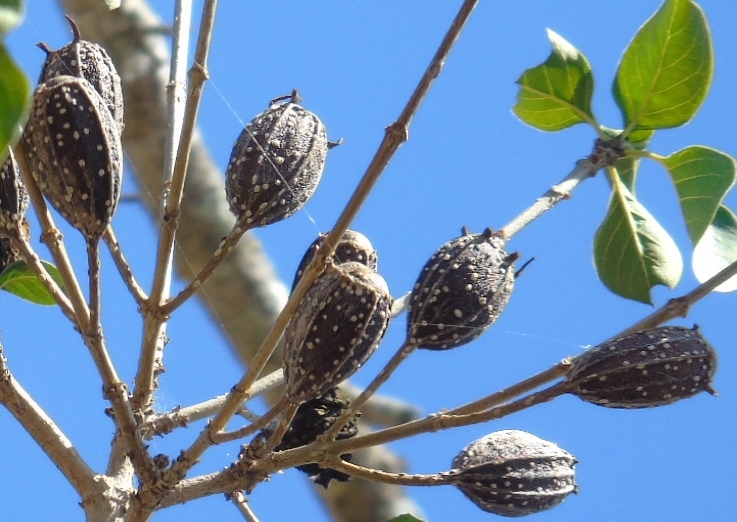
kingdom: Plantae
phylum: Tracheophyta
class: Magnoliopsida
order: Gentianales
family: Rubiaceae
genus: Hintonia
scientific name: Hintonia latiflora
